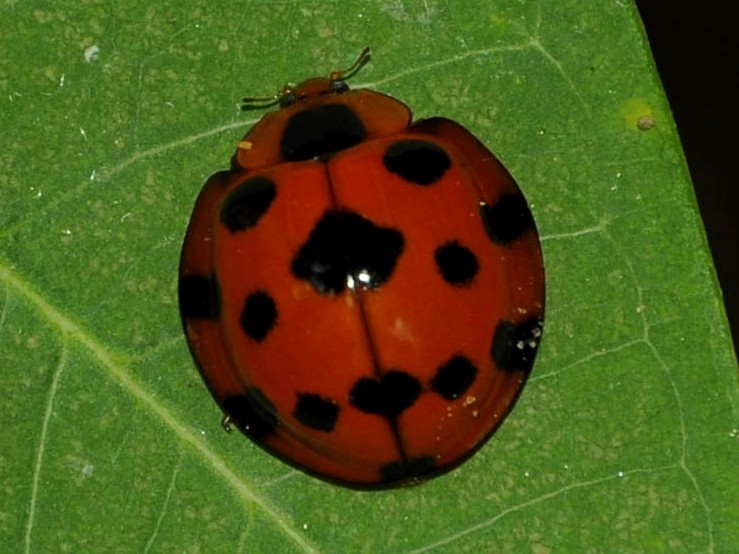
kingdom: Animalia
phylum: Arthropoda
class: Insecta
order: Coleoptera
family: Coccinellidae
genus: Synonycha
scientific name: Synonycha grandis
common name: Lady beetle
